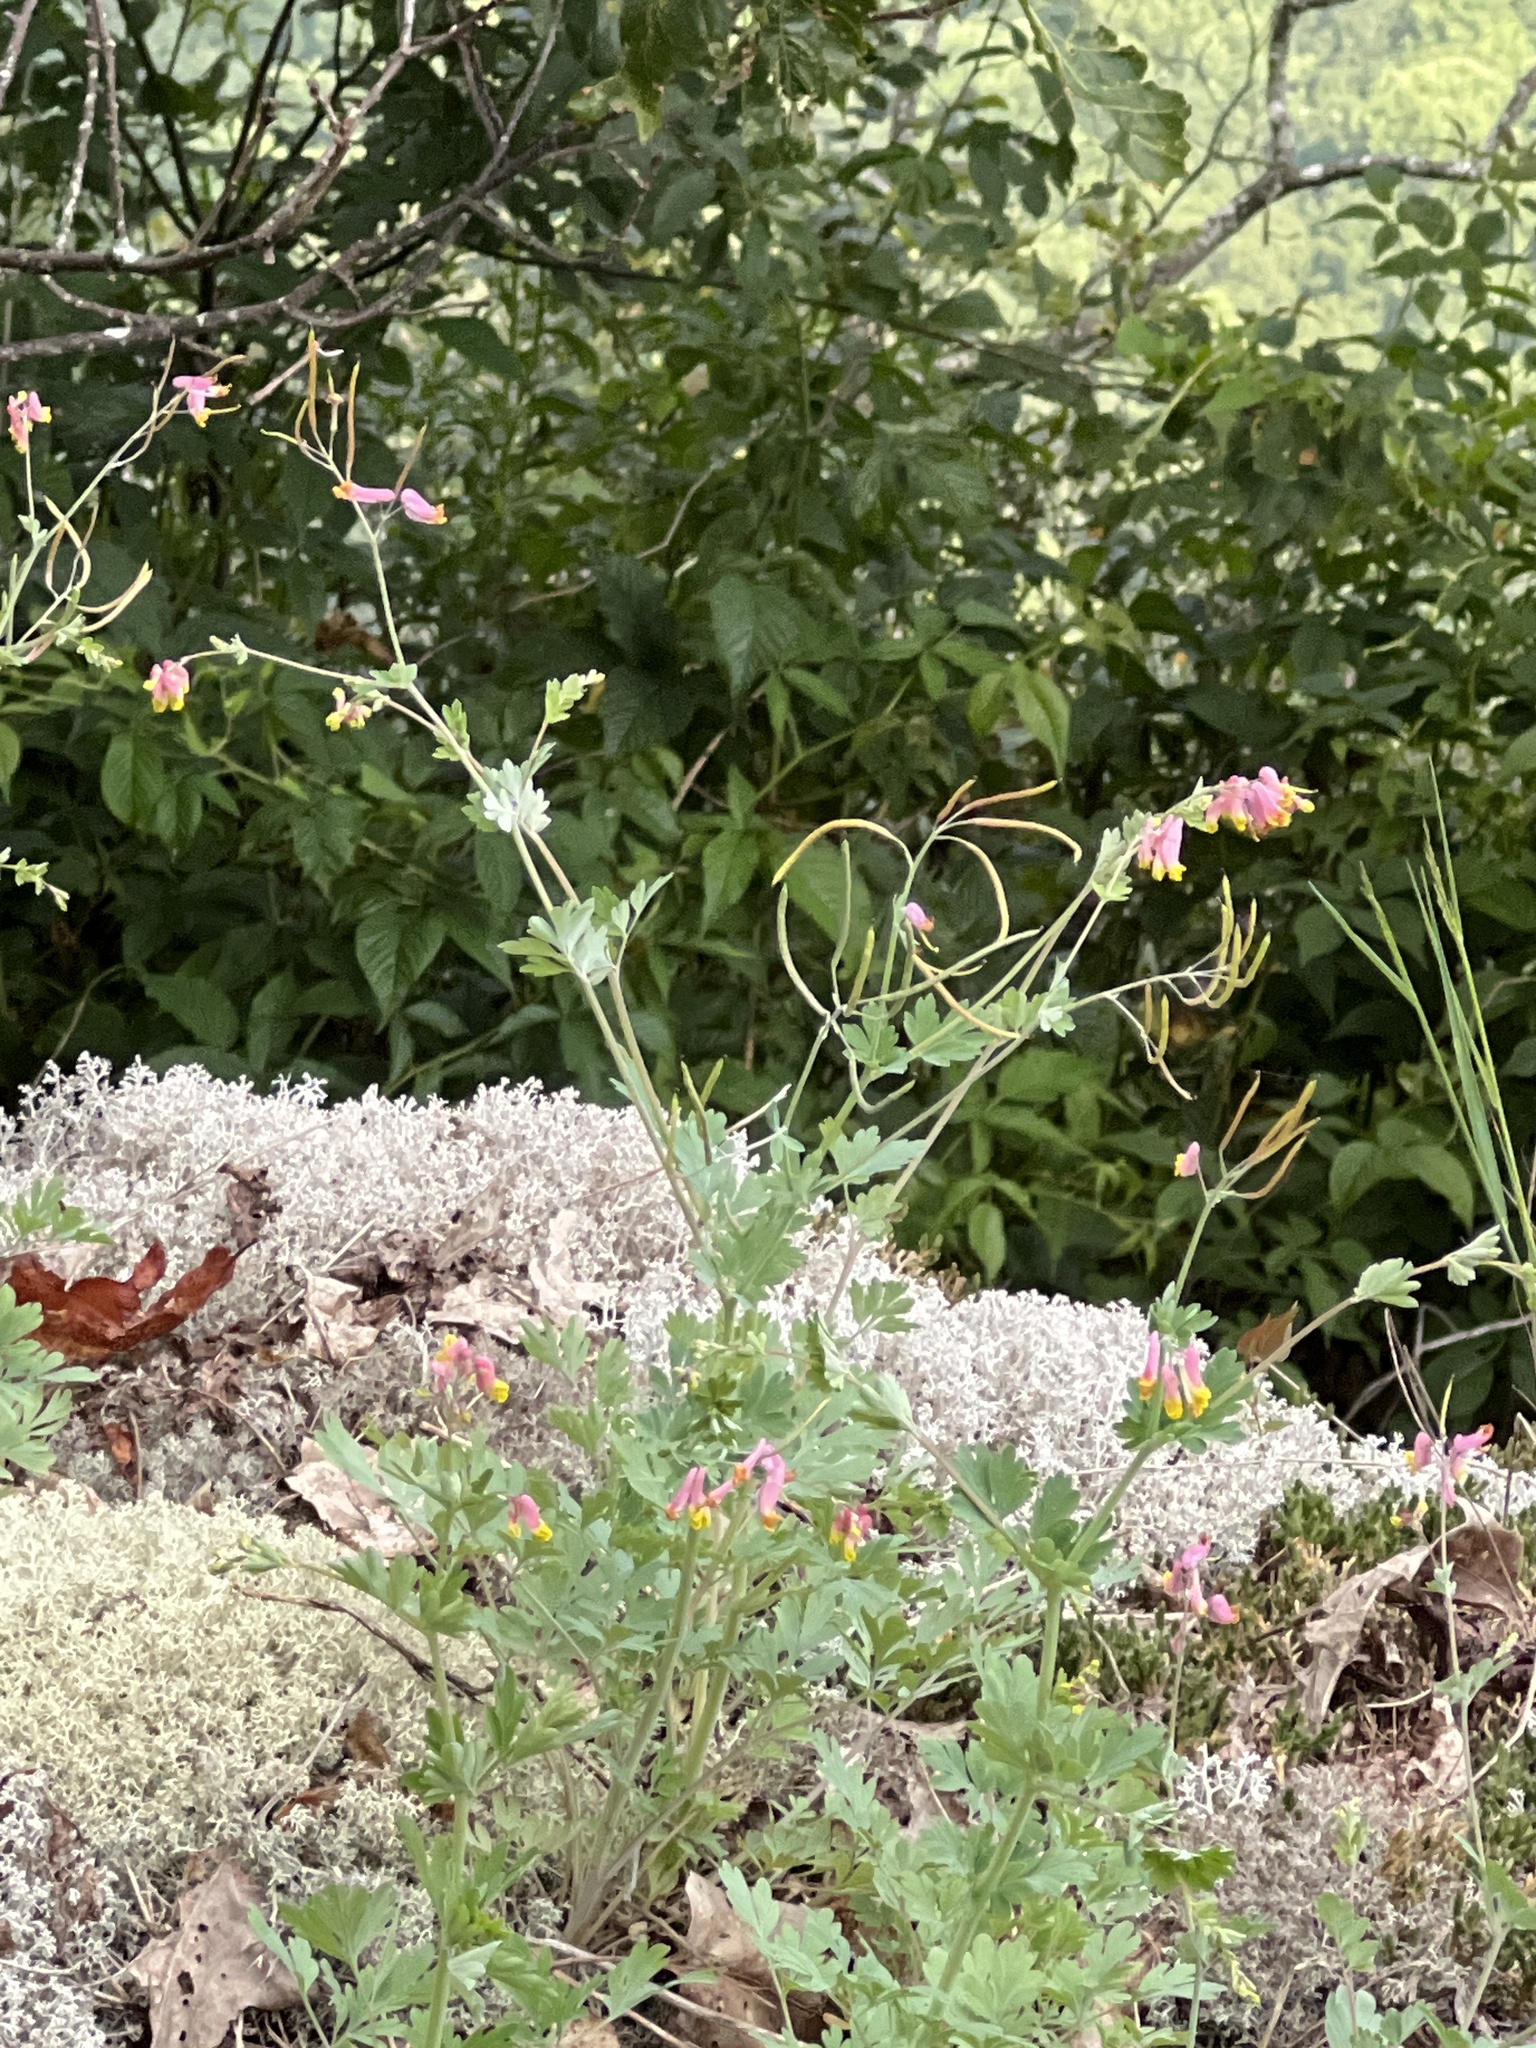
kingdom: Plantae
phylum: Tracheophyta
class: Magnoliopsida
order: Ranunculales
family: Papaveraceae
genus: Capnoides
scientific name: Capnoides sempervirens
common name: Rock harlequin
